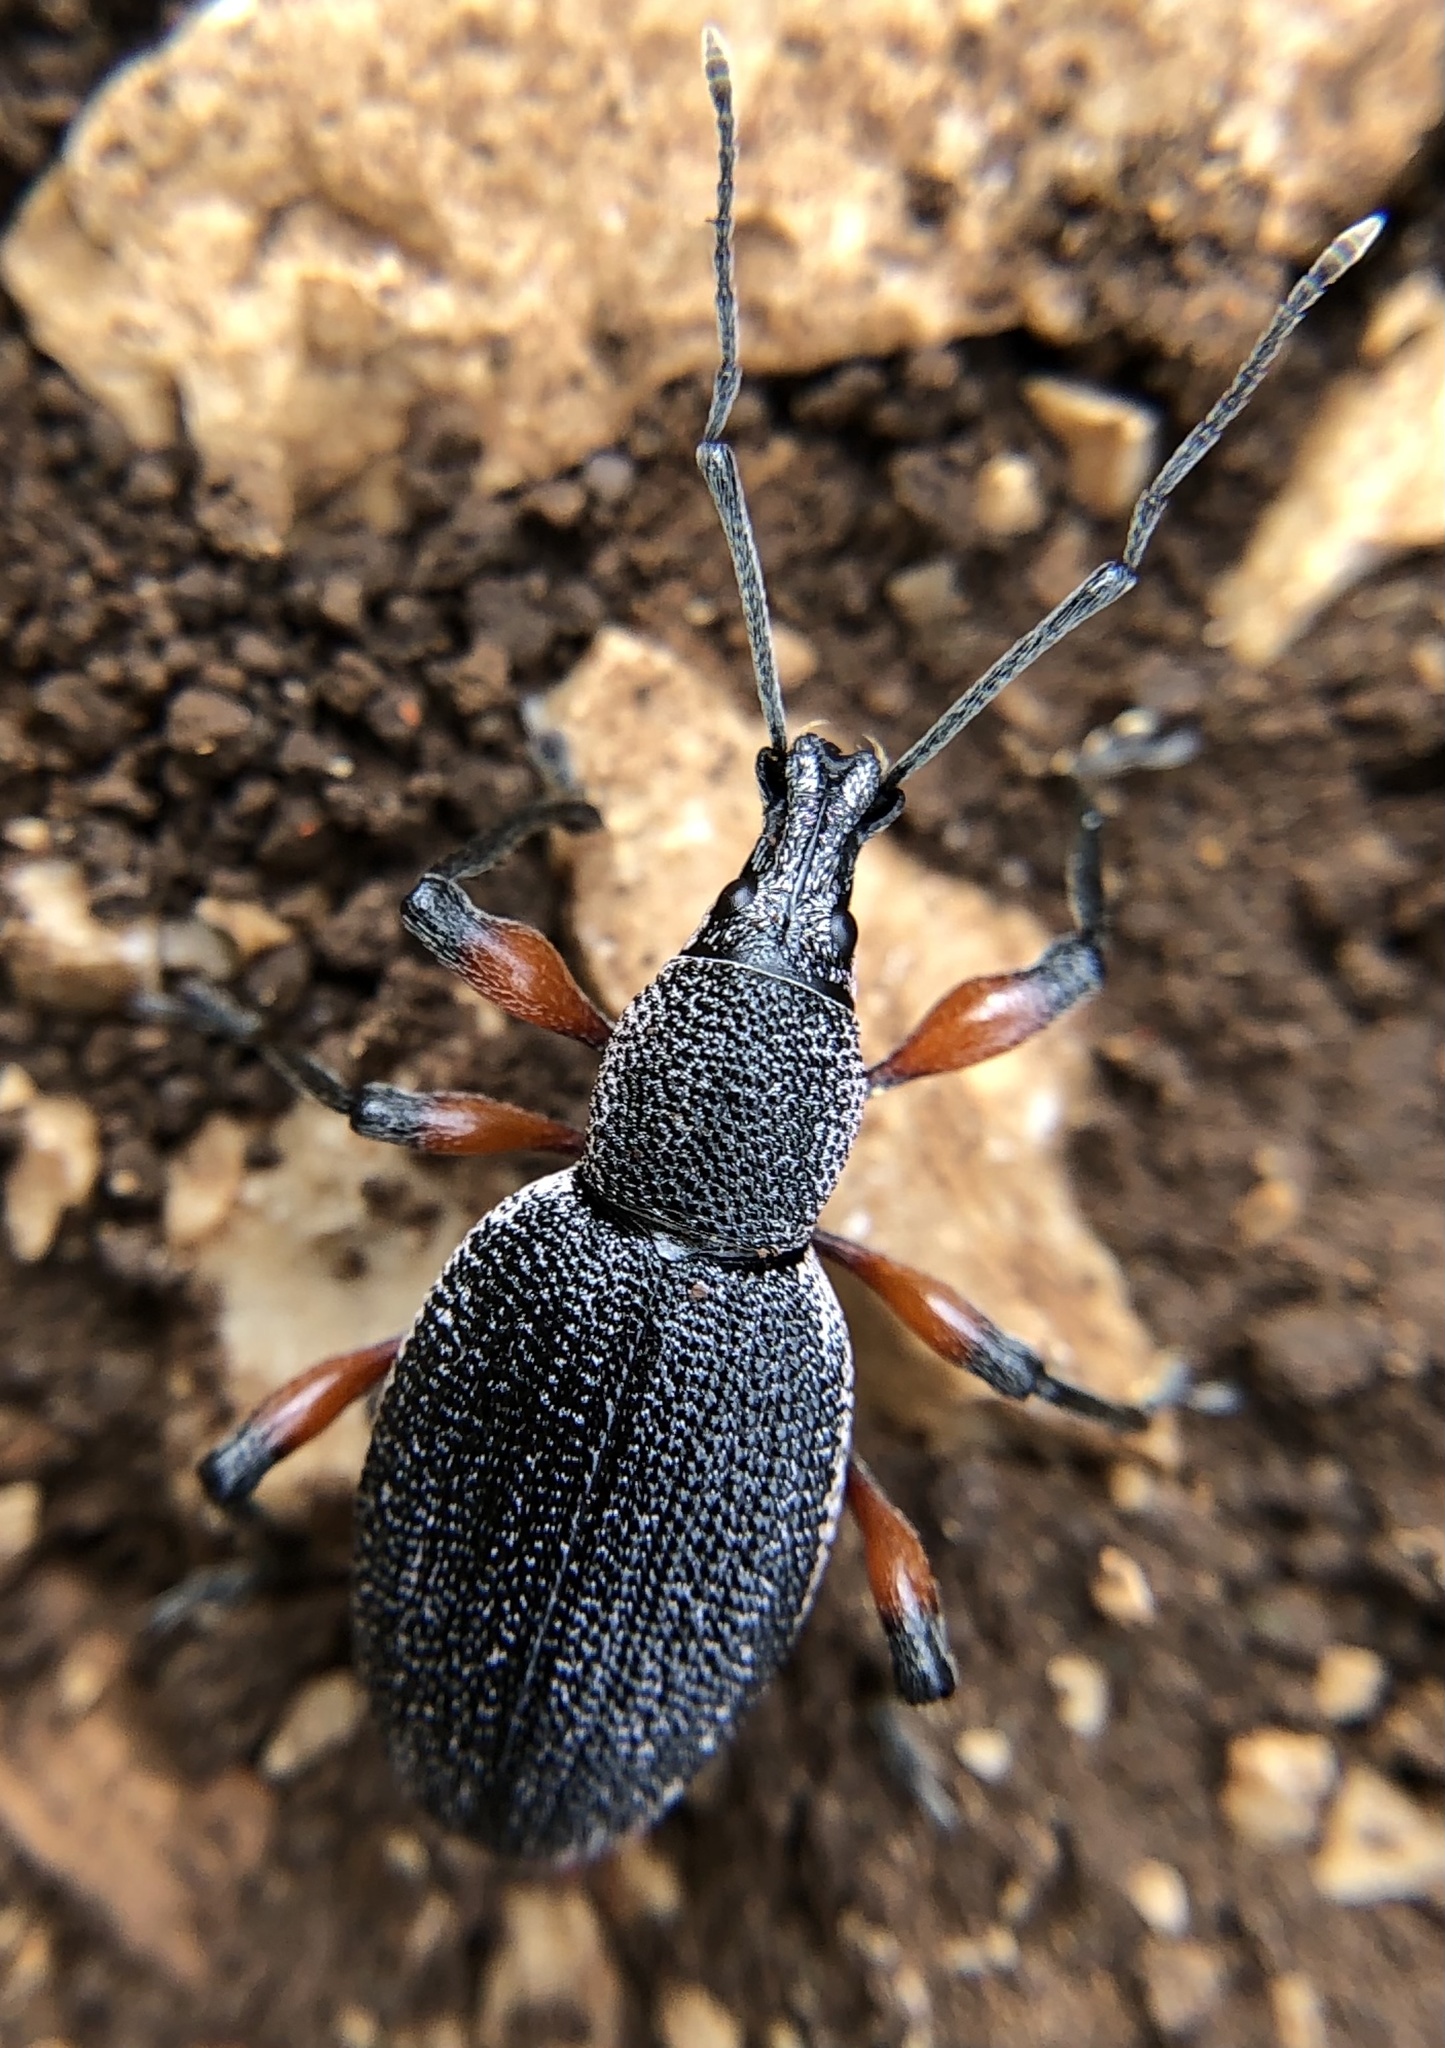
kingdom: Animalia
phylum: Arthropoda
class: Insecta
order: Coleoptera
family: Curculionidae
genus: Otiorhynchus
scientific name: Otiorhynchus cardiniger
